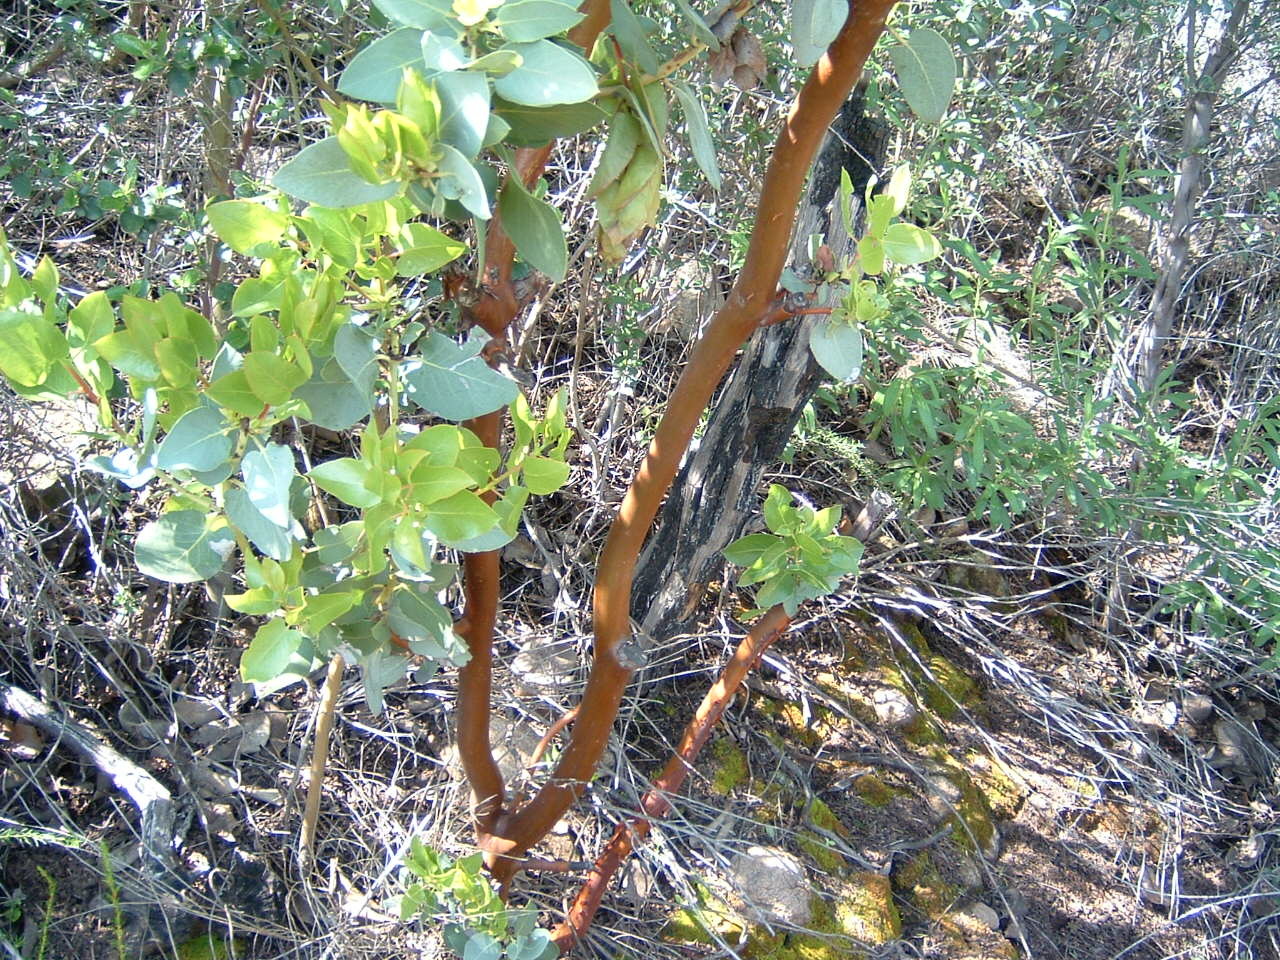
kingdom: Plantae
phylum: Tracheophyta
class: Magnoliopsida
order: Ericales
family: Ericaceae
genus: Arctostaphylos
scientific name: Arctostaphylos glauca
